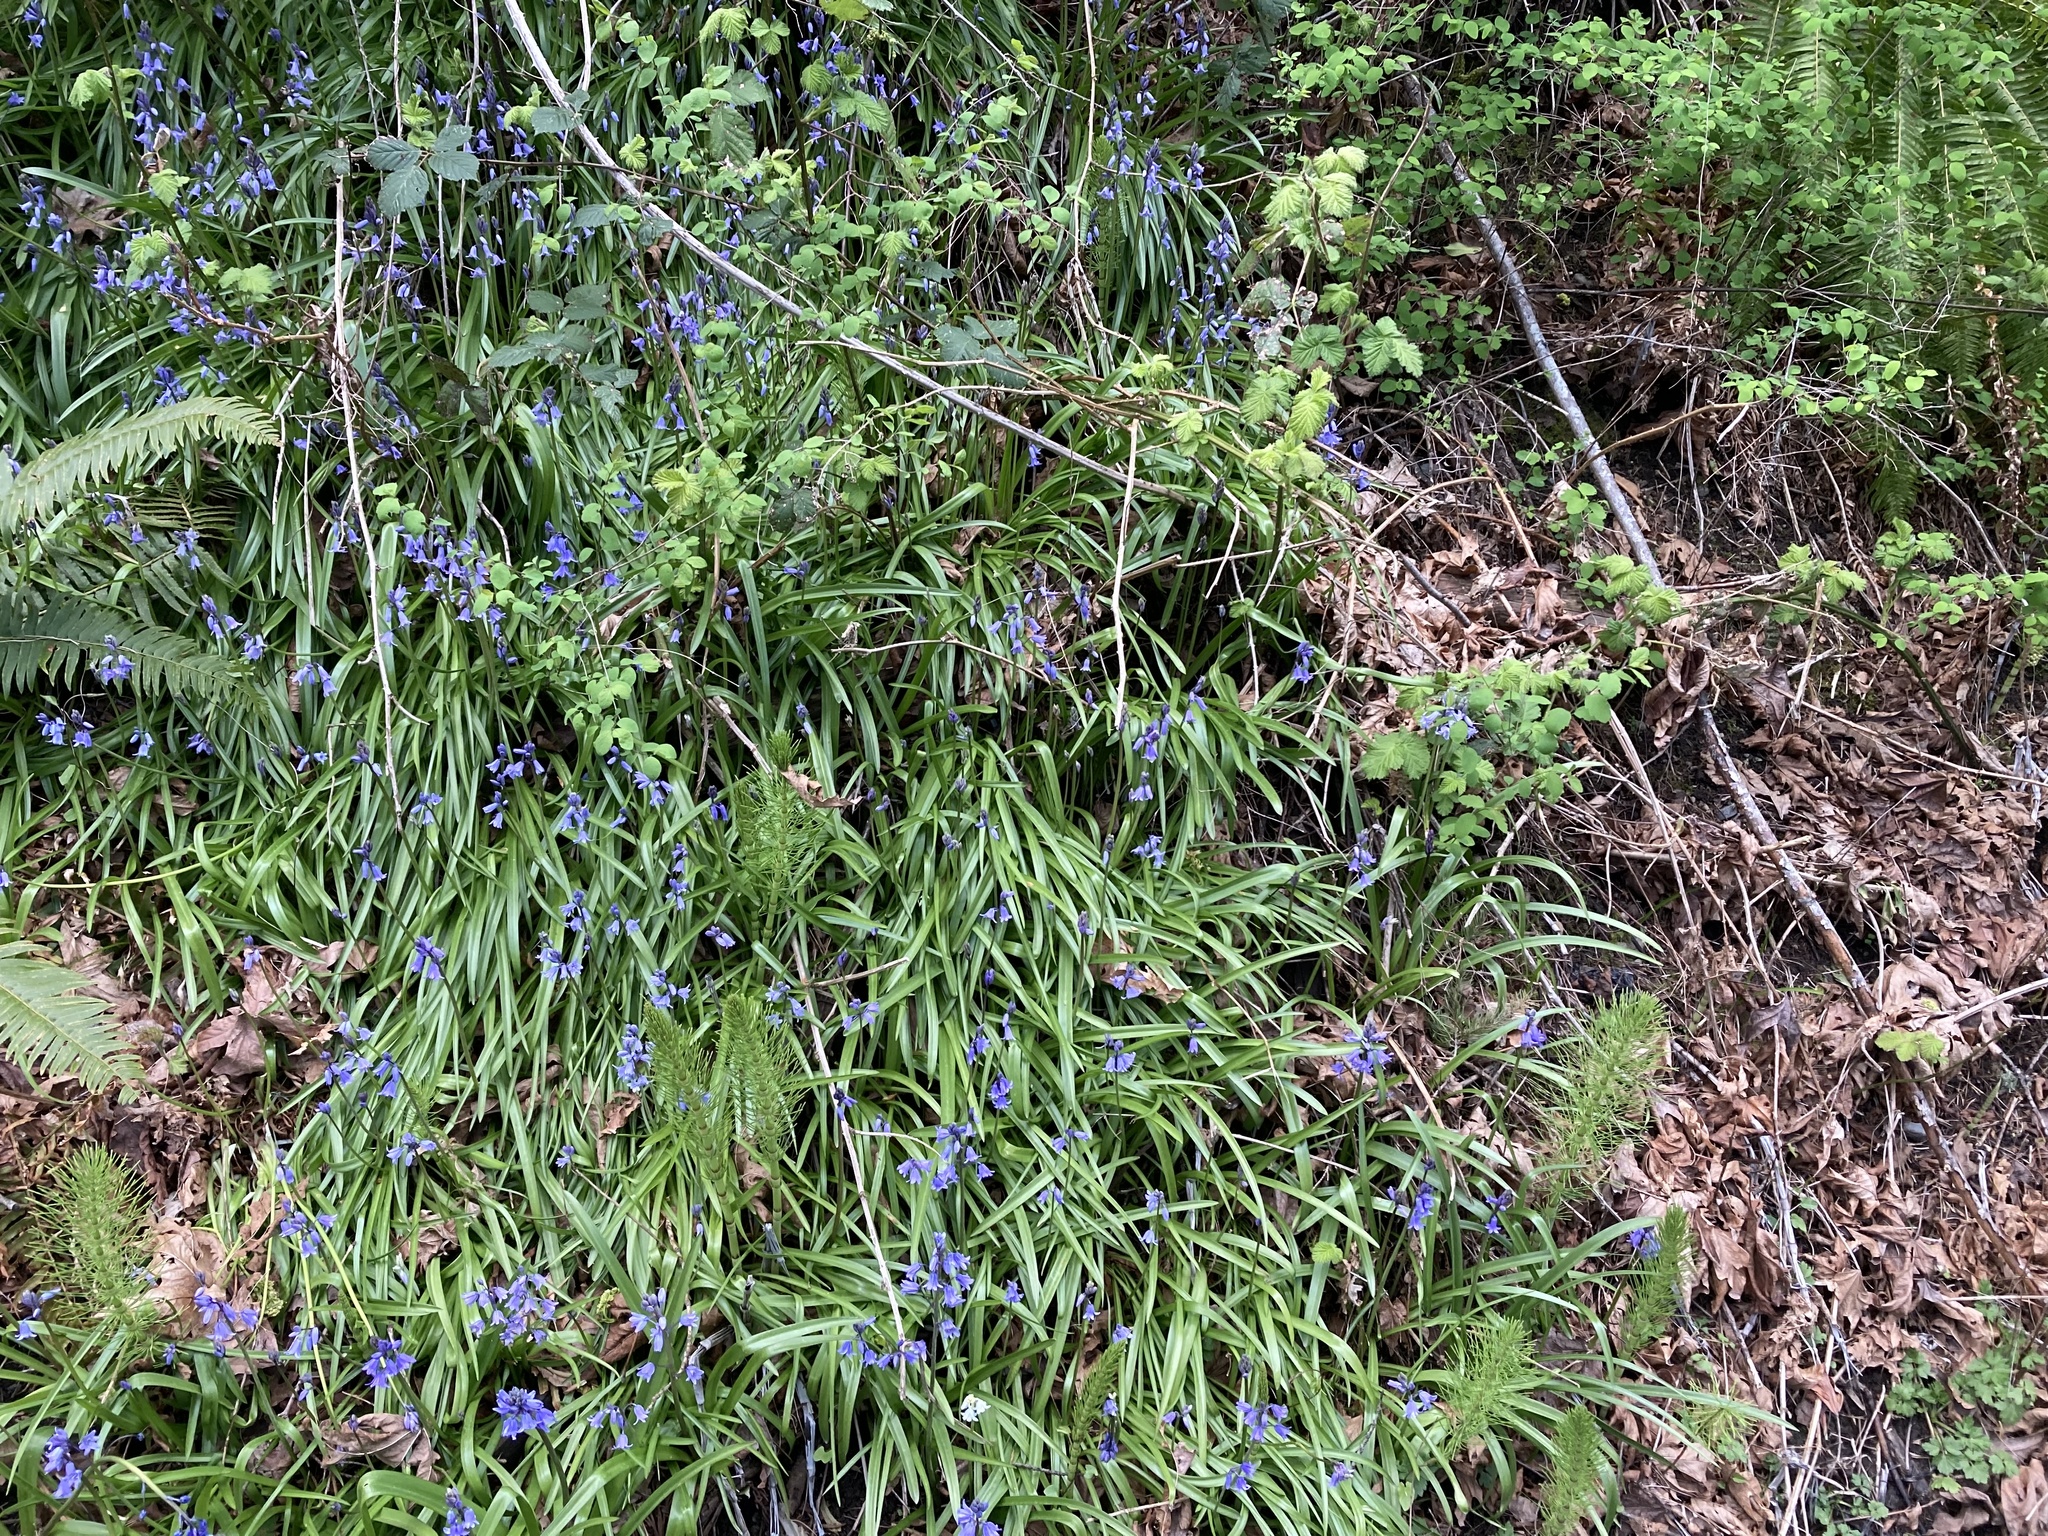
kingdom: Plantae
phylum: Tracheophyta
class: Liliopsida
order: Asparagales
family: Asparagaceae
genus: Hyacinthoides
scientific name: Hyacinthoides hispanica
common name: Spanish bluebell
